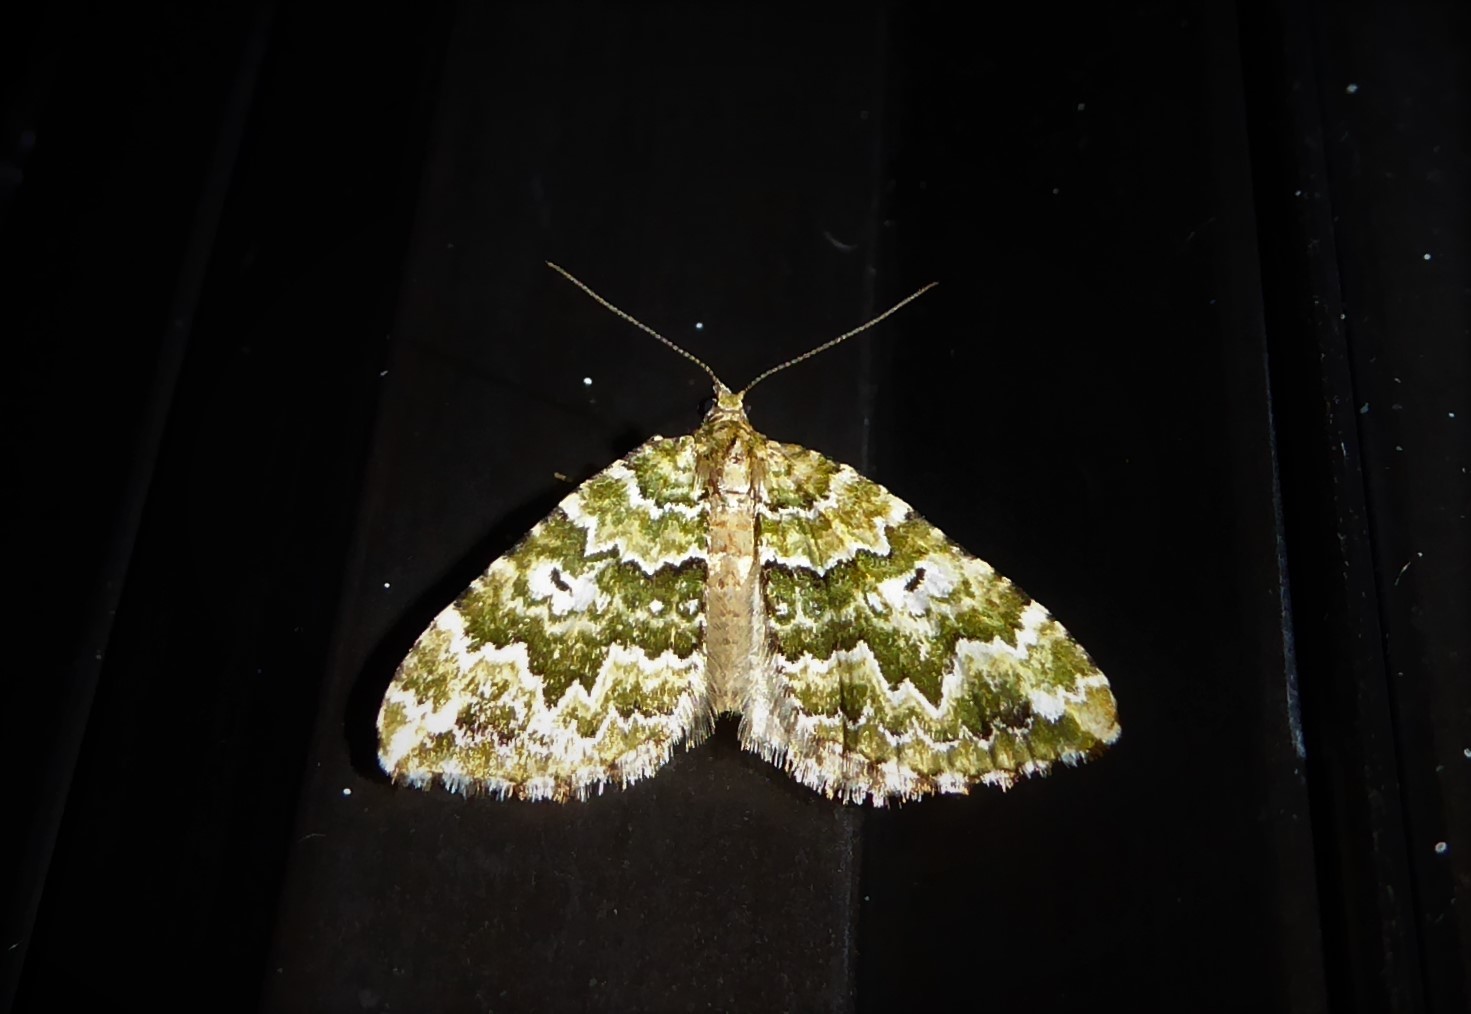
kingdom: Animalia
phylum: Arthropoda
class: Insecta
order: Lepidoptera
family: Geometridae
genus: Asaphodes
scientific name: Asaphodes beata
